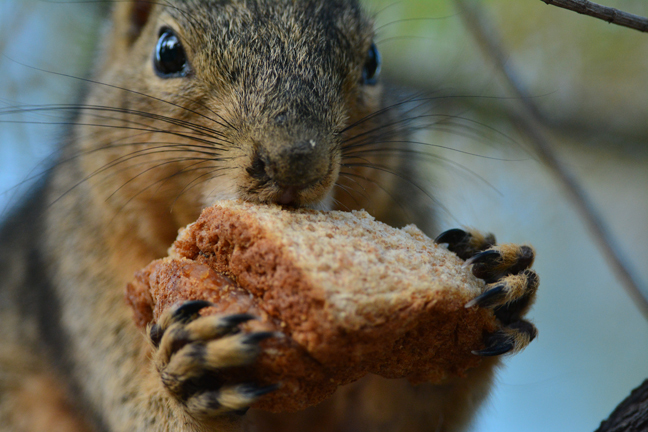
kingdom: Animalia
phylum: Chordata
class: Mammalia
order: Rodentia
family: Sciuridae
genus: Sciurus
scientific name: Sciurus niger
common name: Fox squirrel
